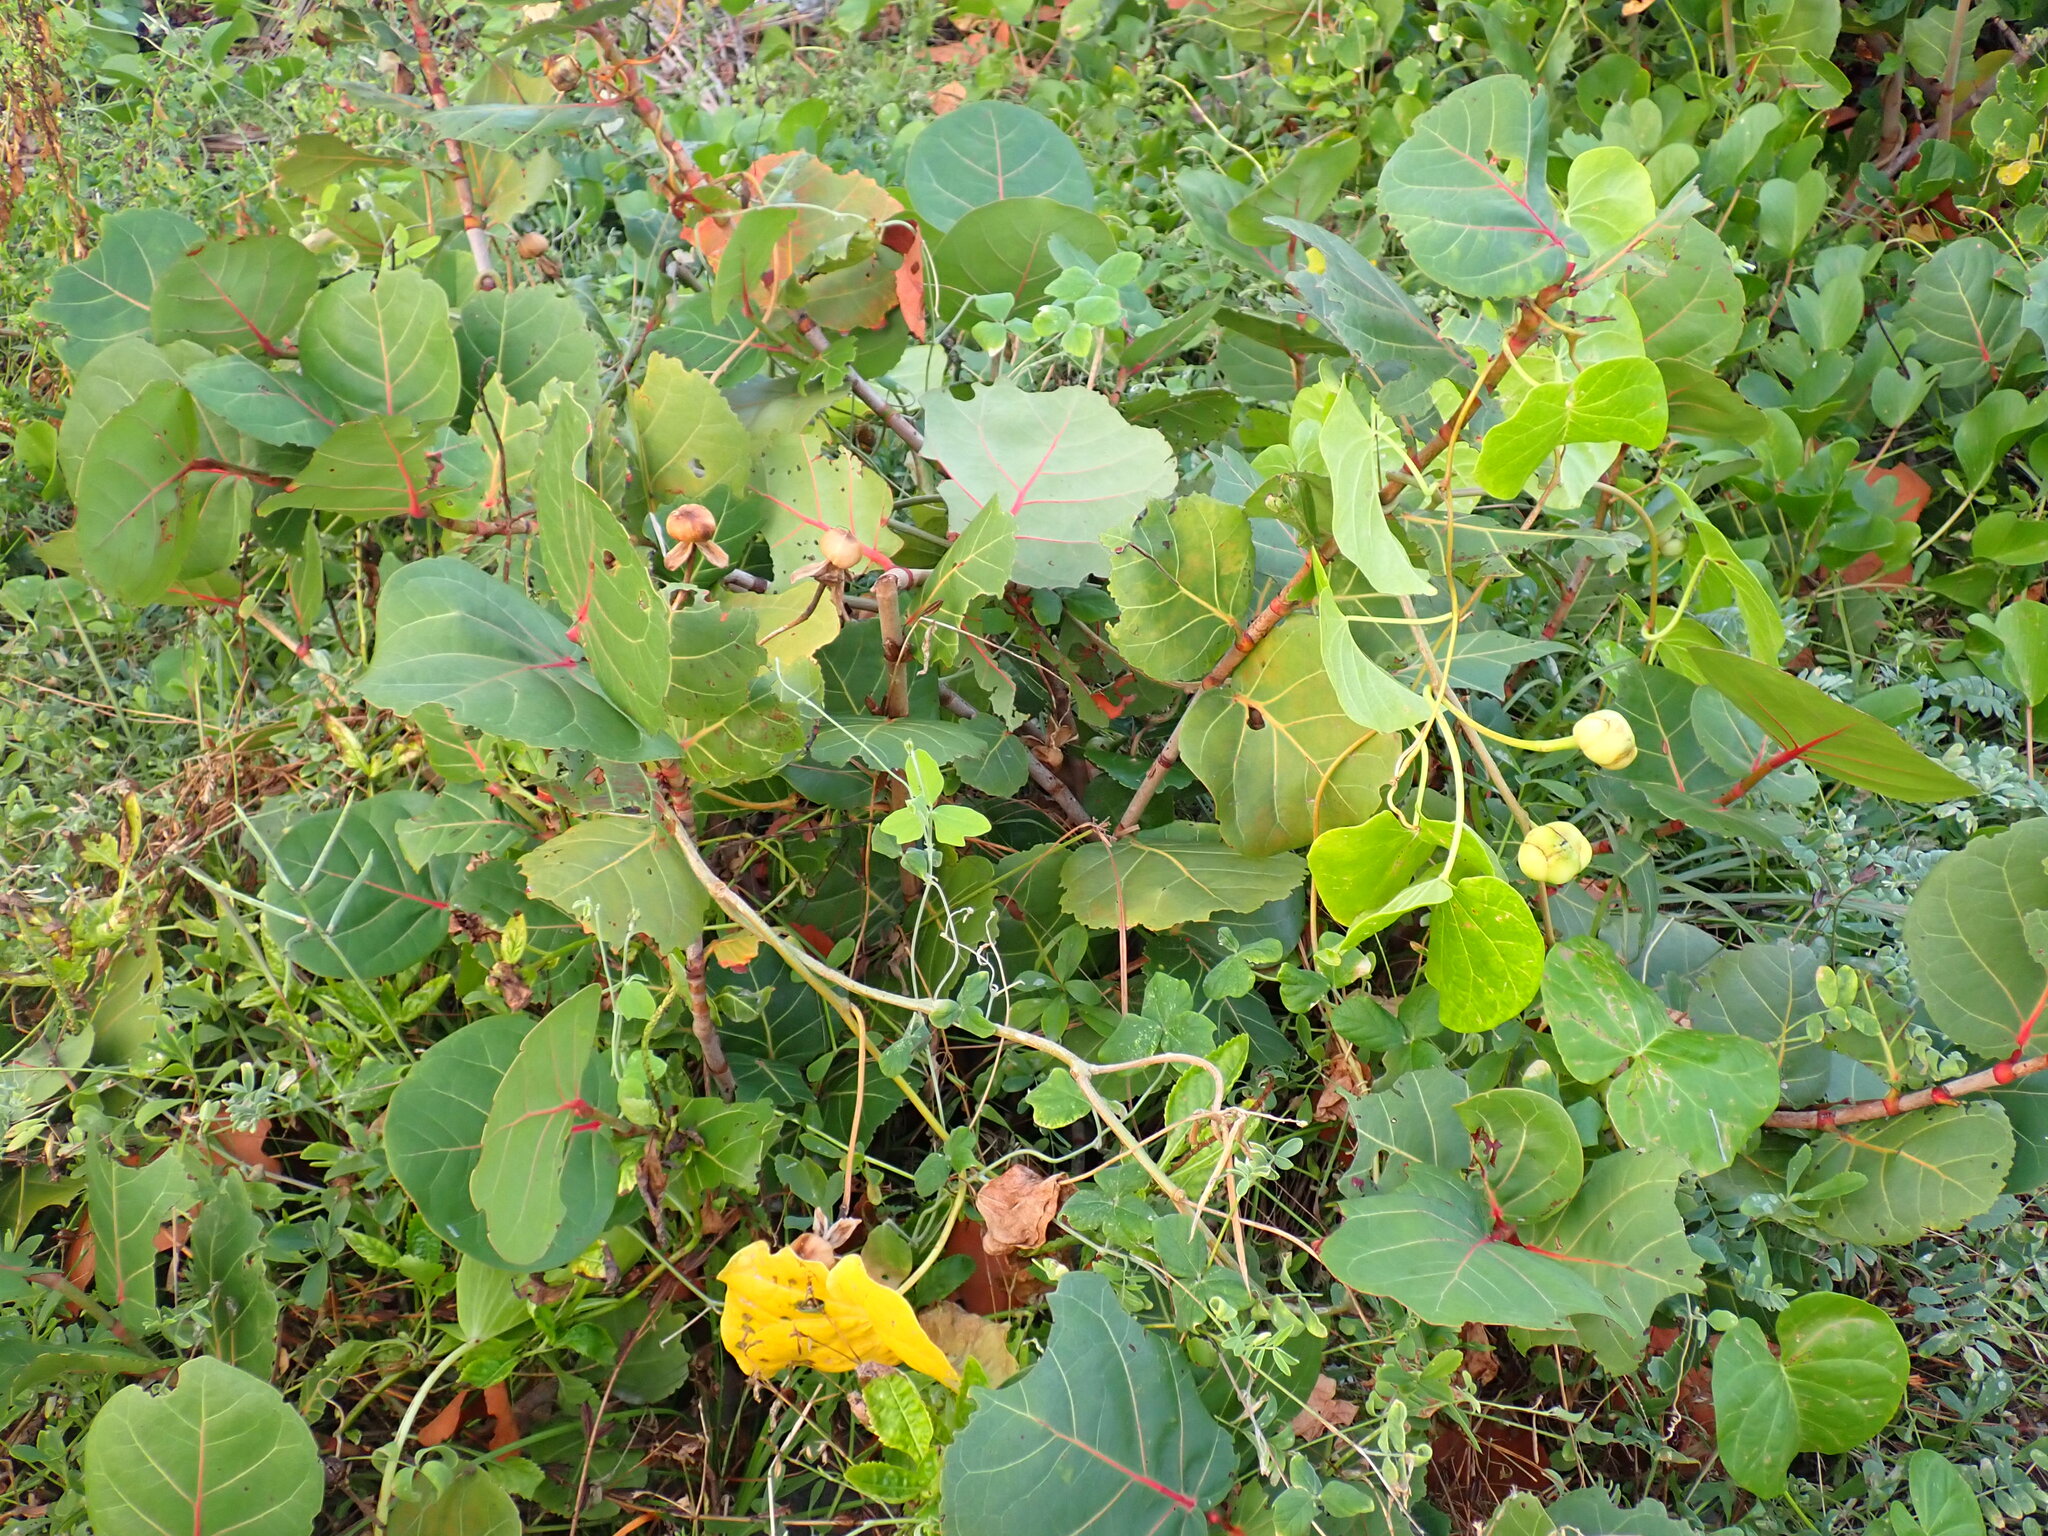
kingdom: Plantae
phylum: Tracheophyta
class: Magnoliopsida
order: Solanales
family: Convolvulaceae
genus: Ipomoea
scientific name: Ipomoea violacea
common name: Beach moonflower
